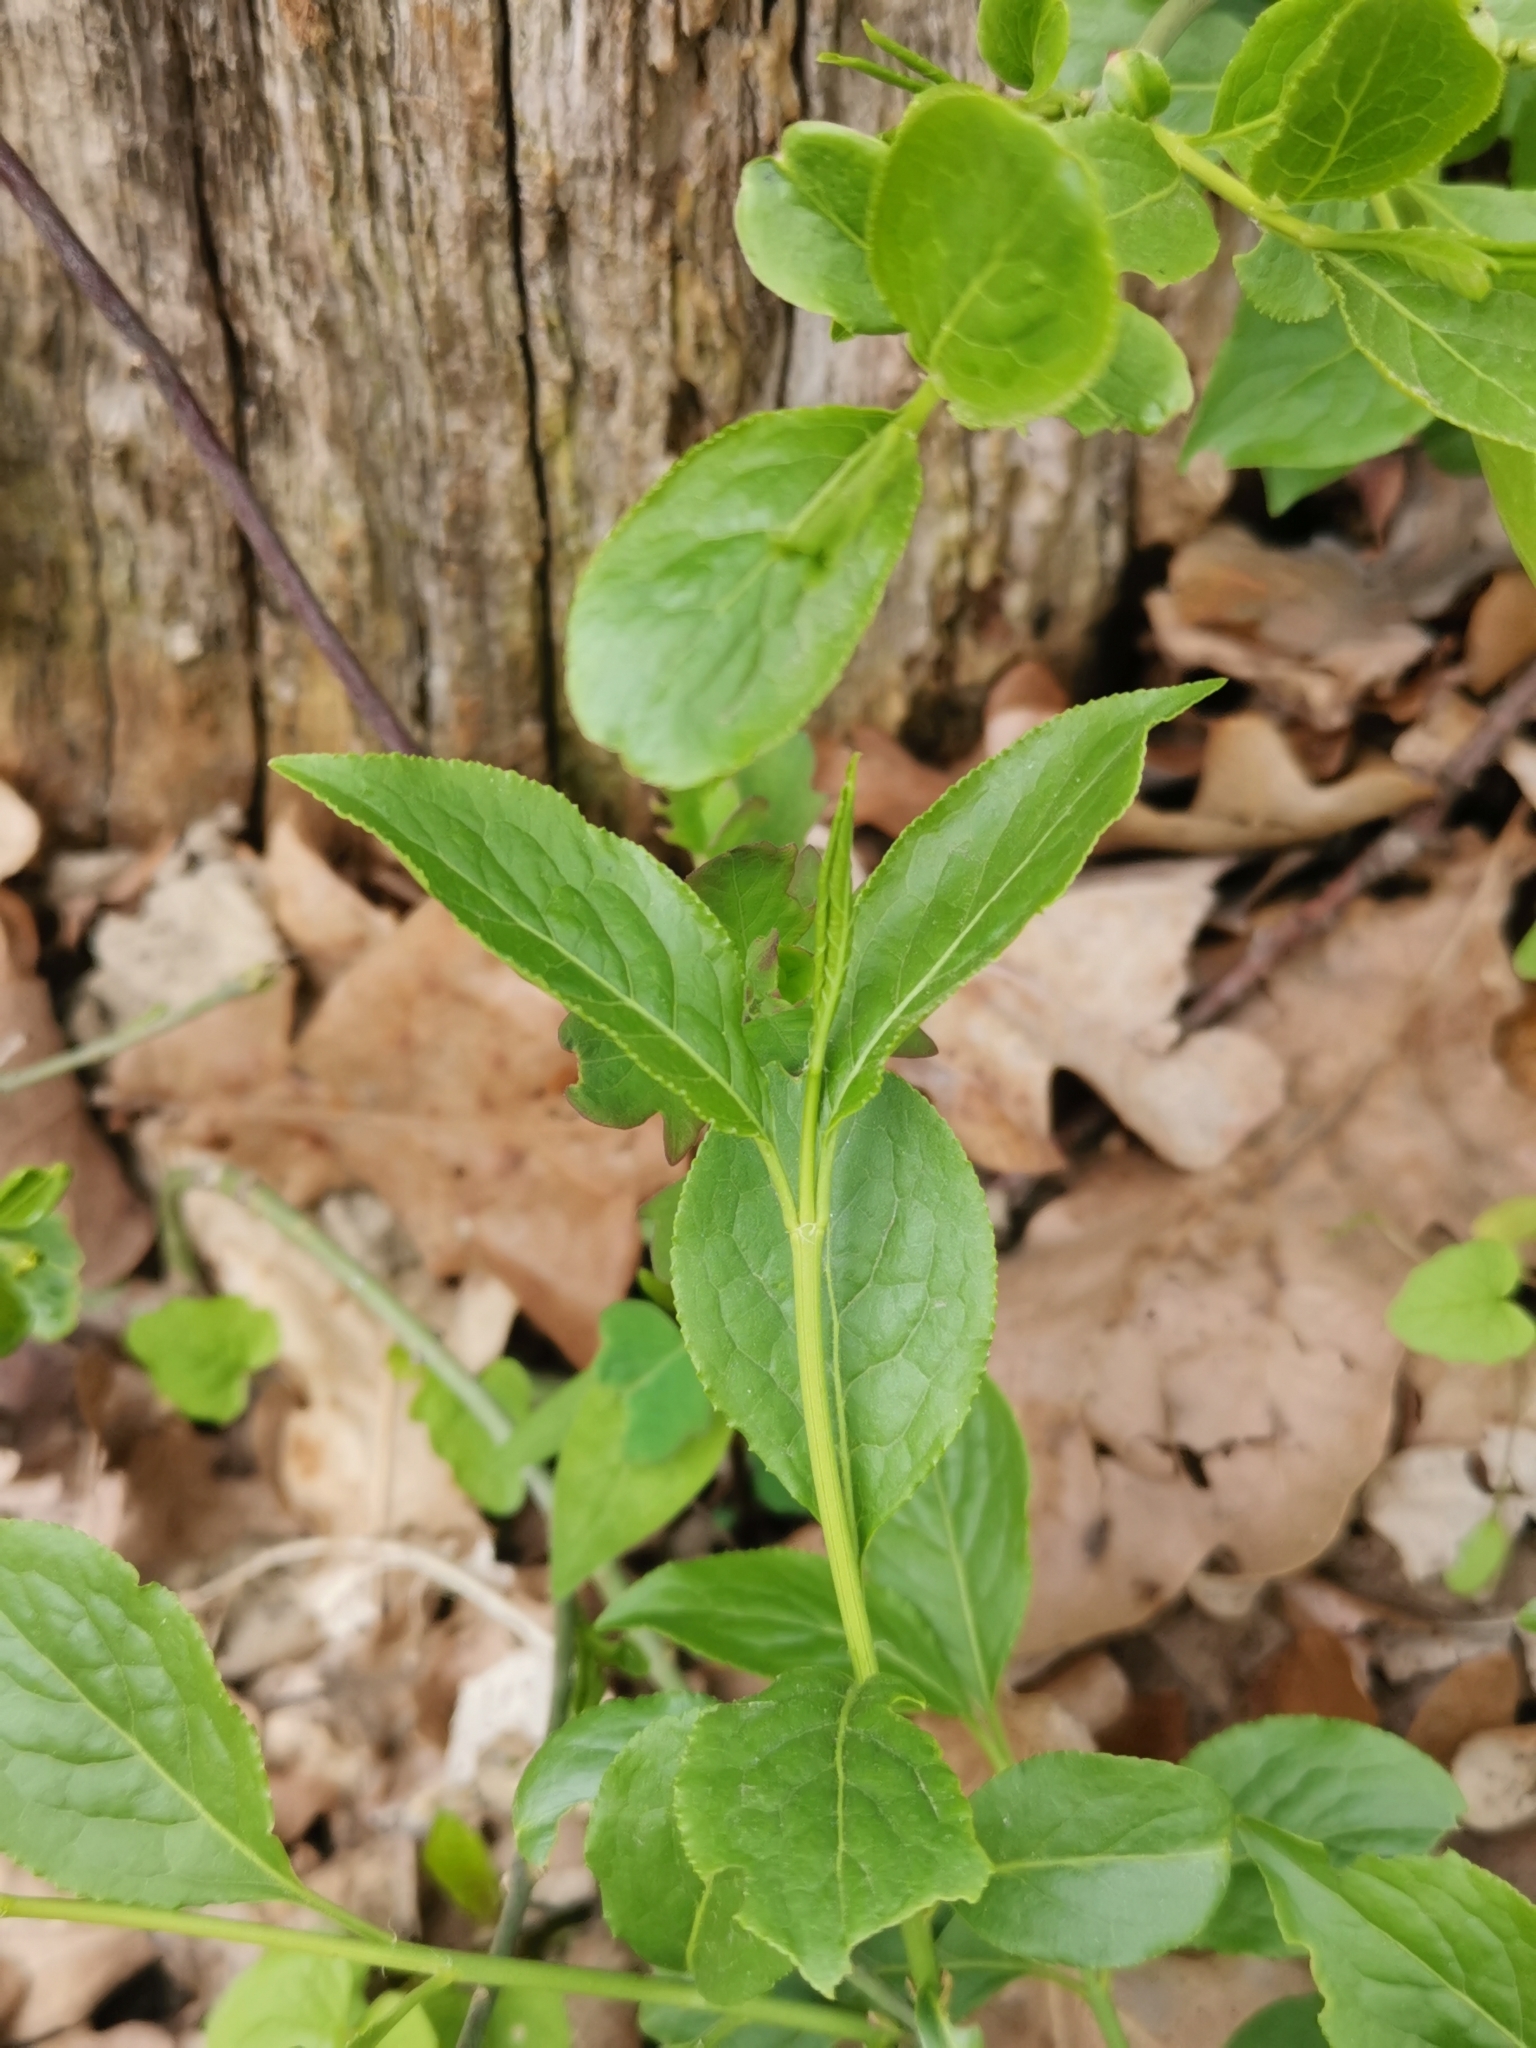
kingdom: Plantae
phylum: Tracheophyta
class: Magnoliopsida
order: Celastrales
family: Celastraceae
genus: Euonymus
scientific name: Euonymus europaeus
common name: Spindle
